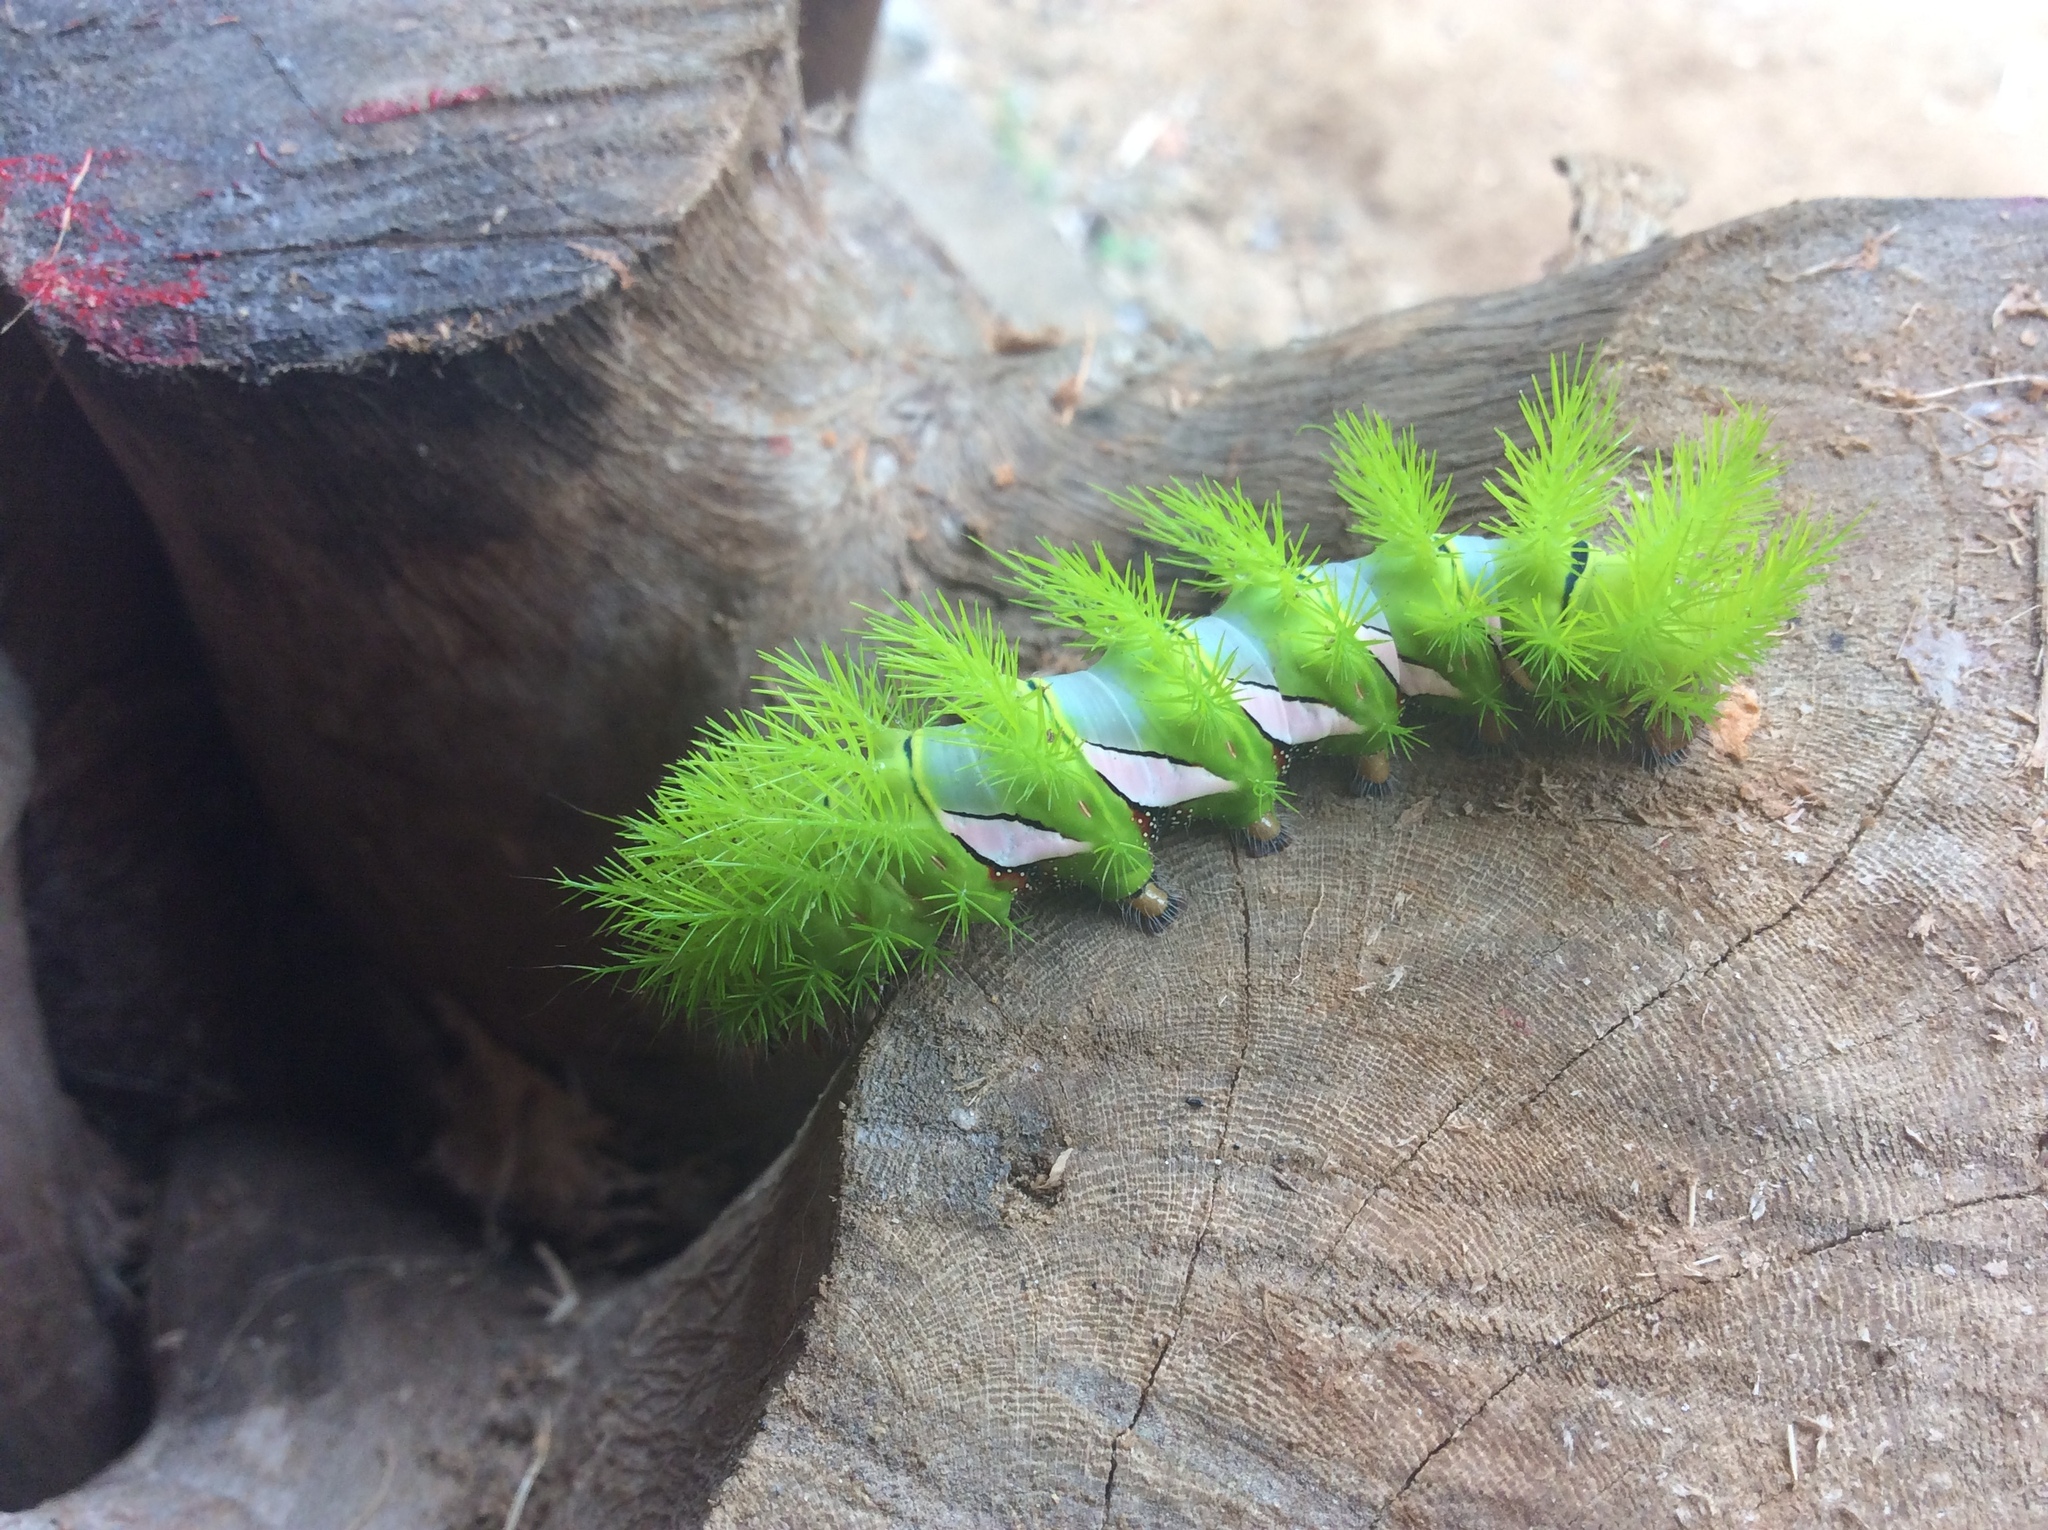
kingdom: Animalia
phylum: Arthropoda
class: Insecta
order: Lepidoptera
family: Saturniidae
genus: Automeris
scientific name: Automeris naranja
